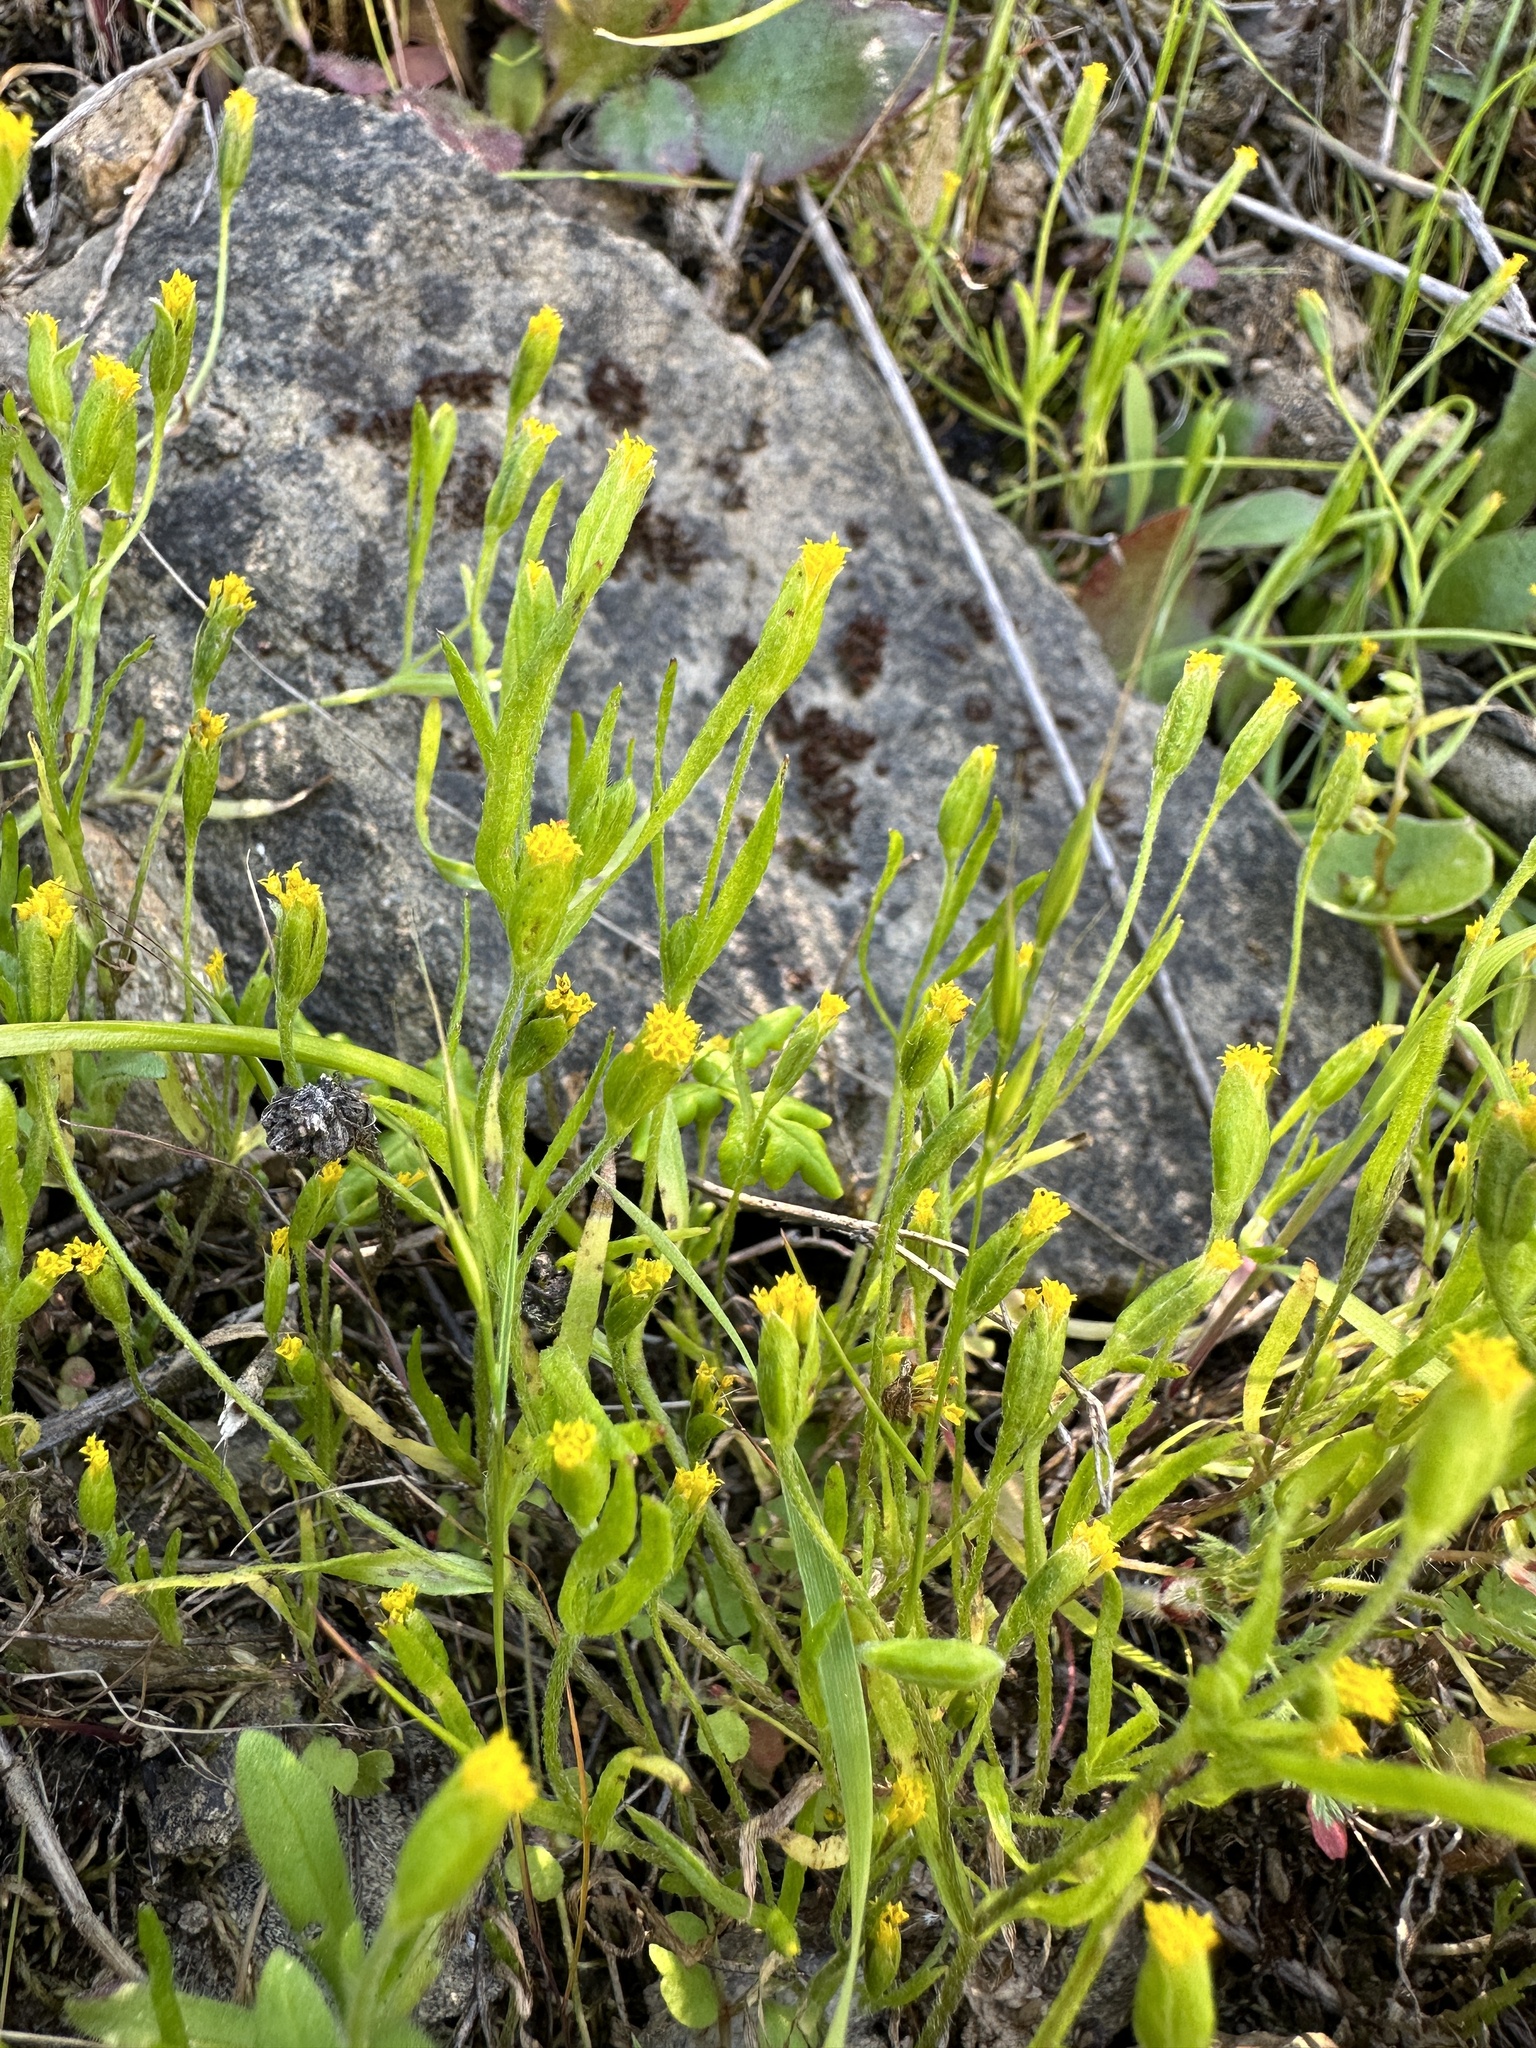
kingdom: Plantae
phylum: Tracheophyta
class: Magnoliopsida
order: Asterales
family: Asteraceae
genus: Lasthenia
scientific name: Lasthenia microglossa
